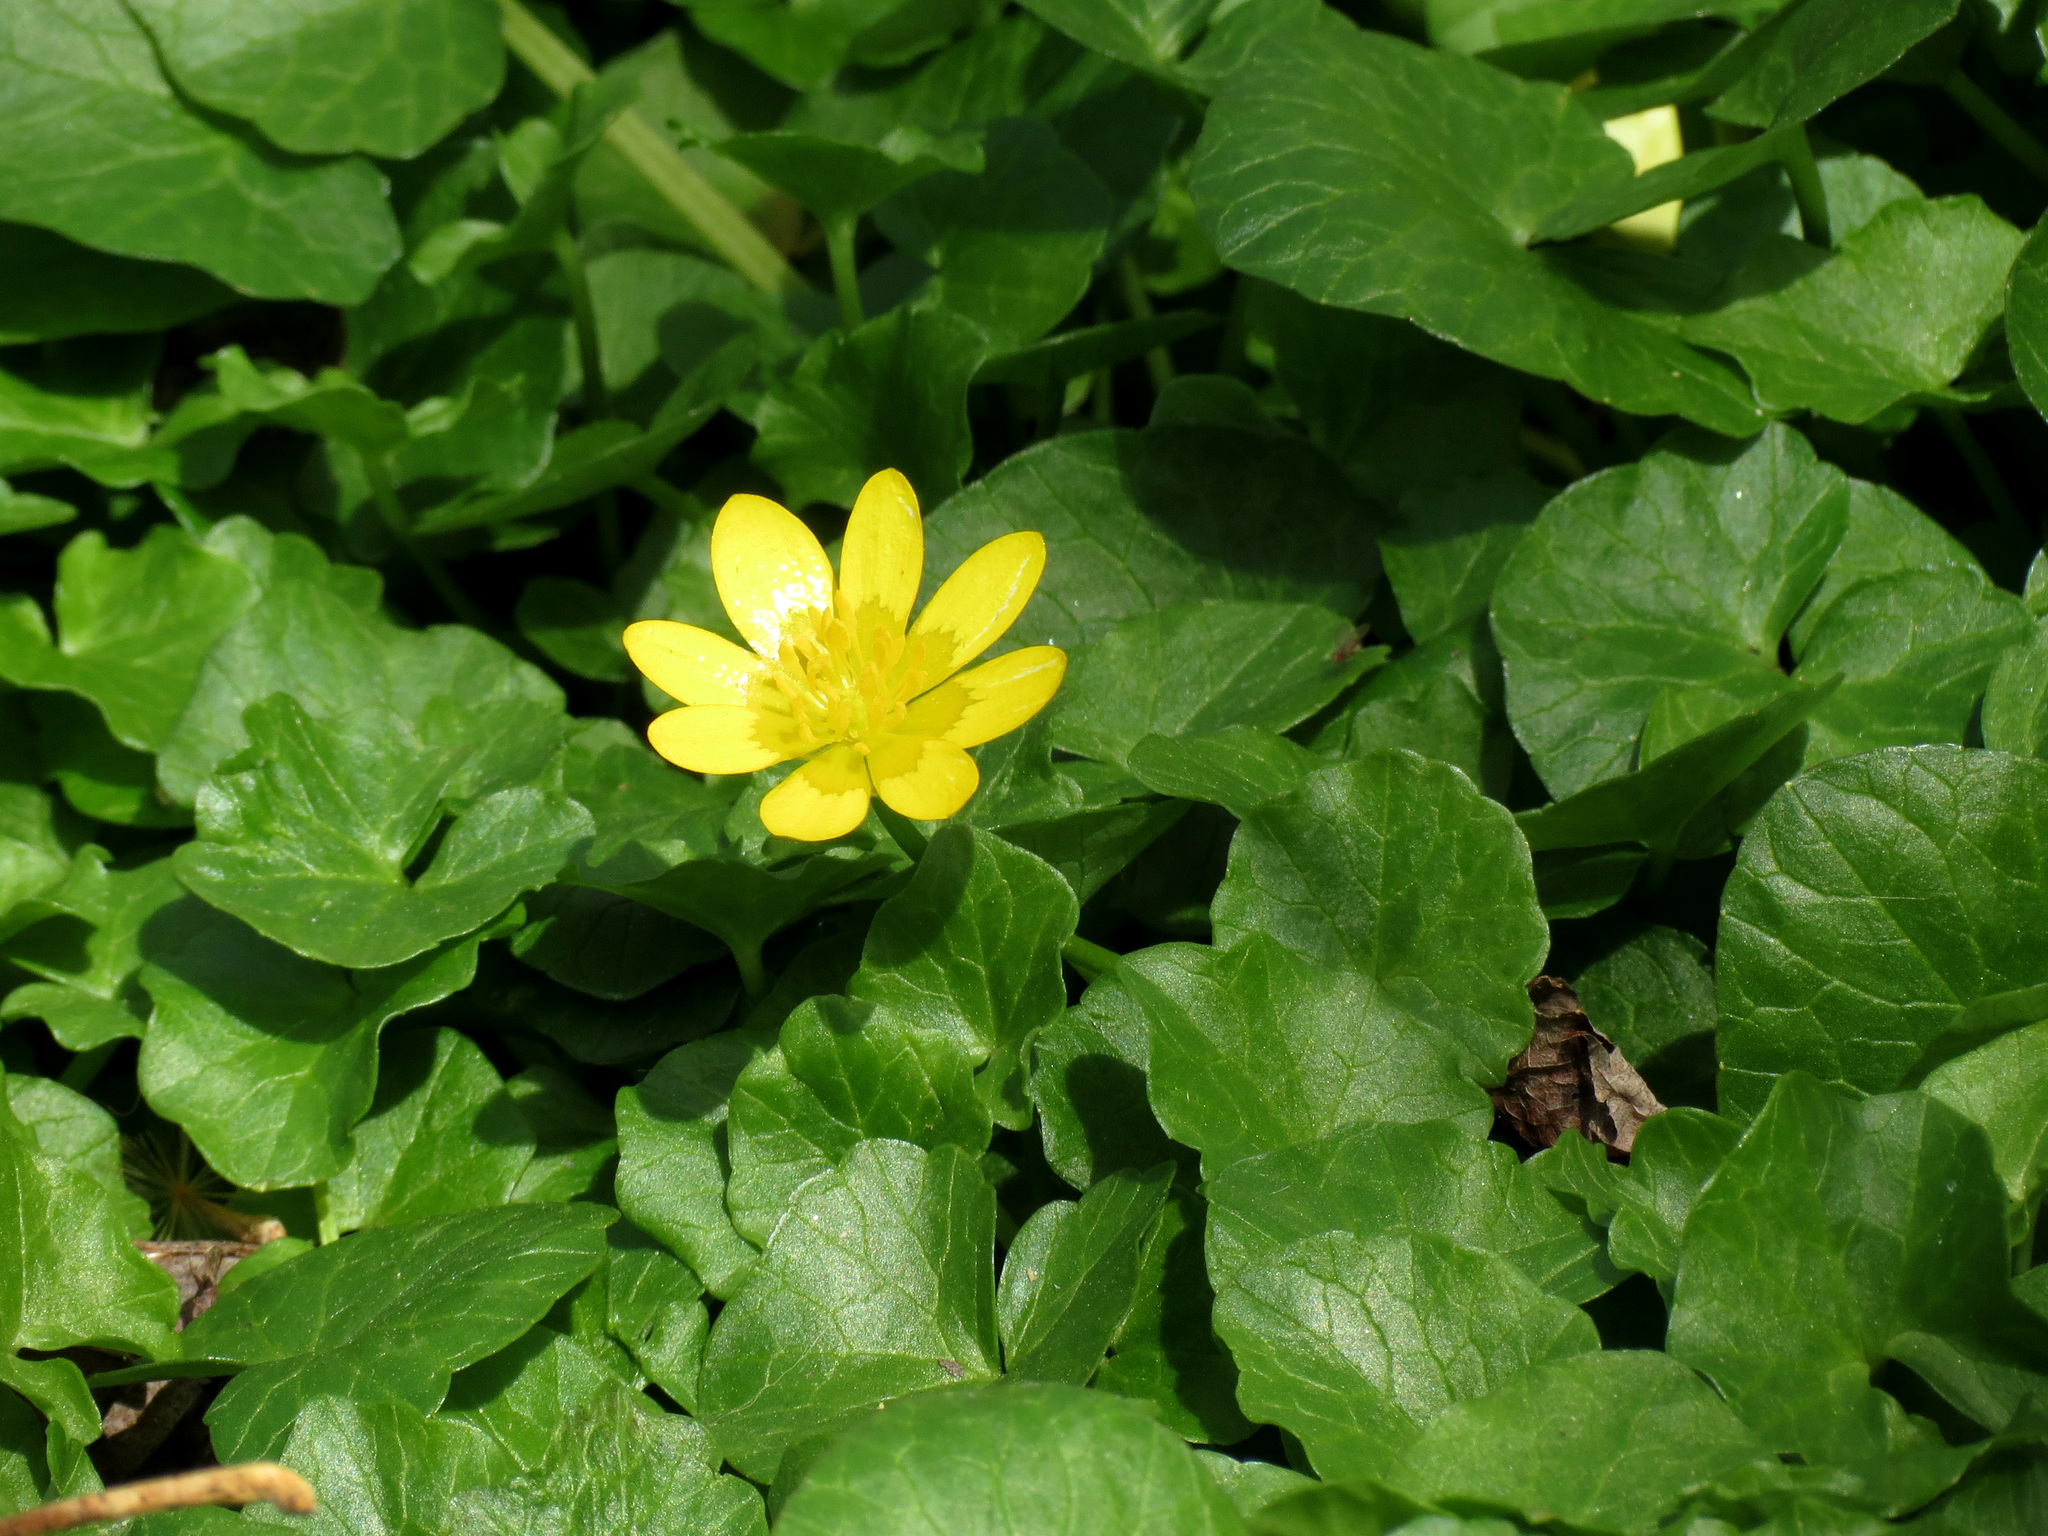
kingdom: Plantae
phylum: Tracheophyta
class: Magnoliopsida
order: Ranunculales
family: Ranunculaceae
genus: Ficaria
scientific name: Ficaria verna
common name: Lesser celandine
